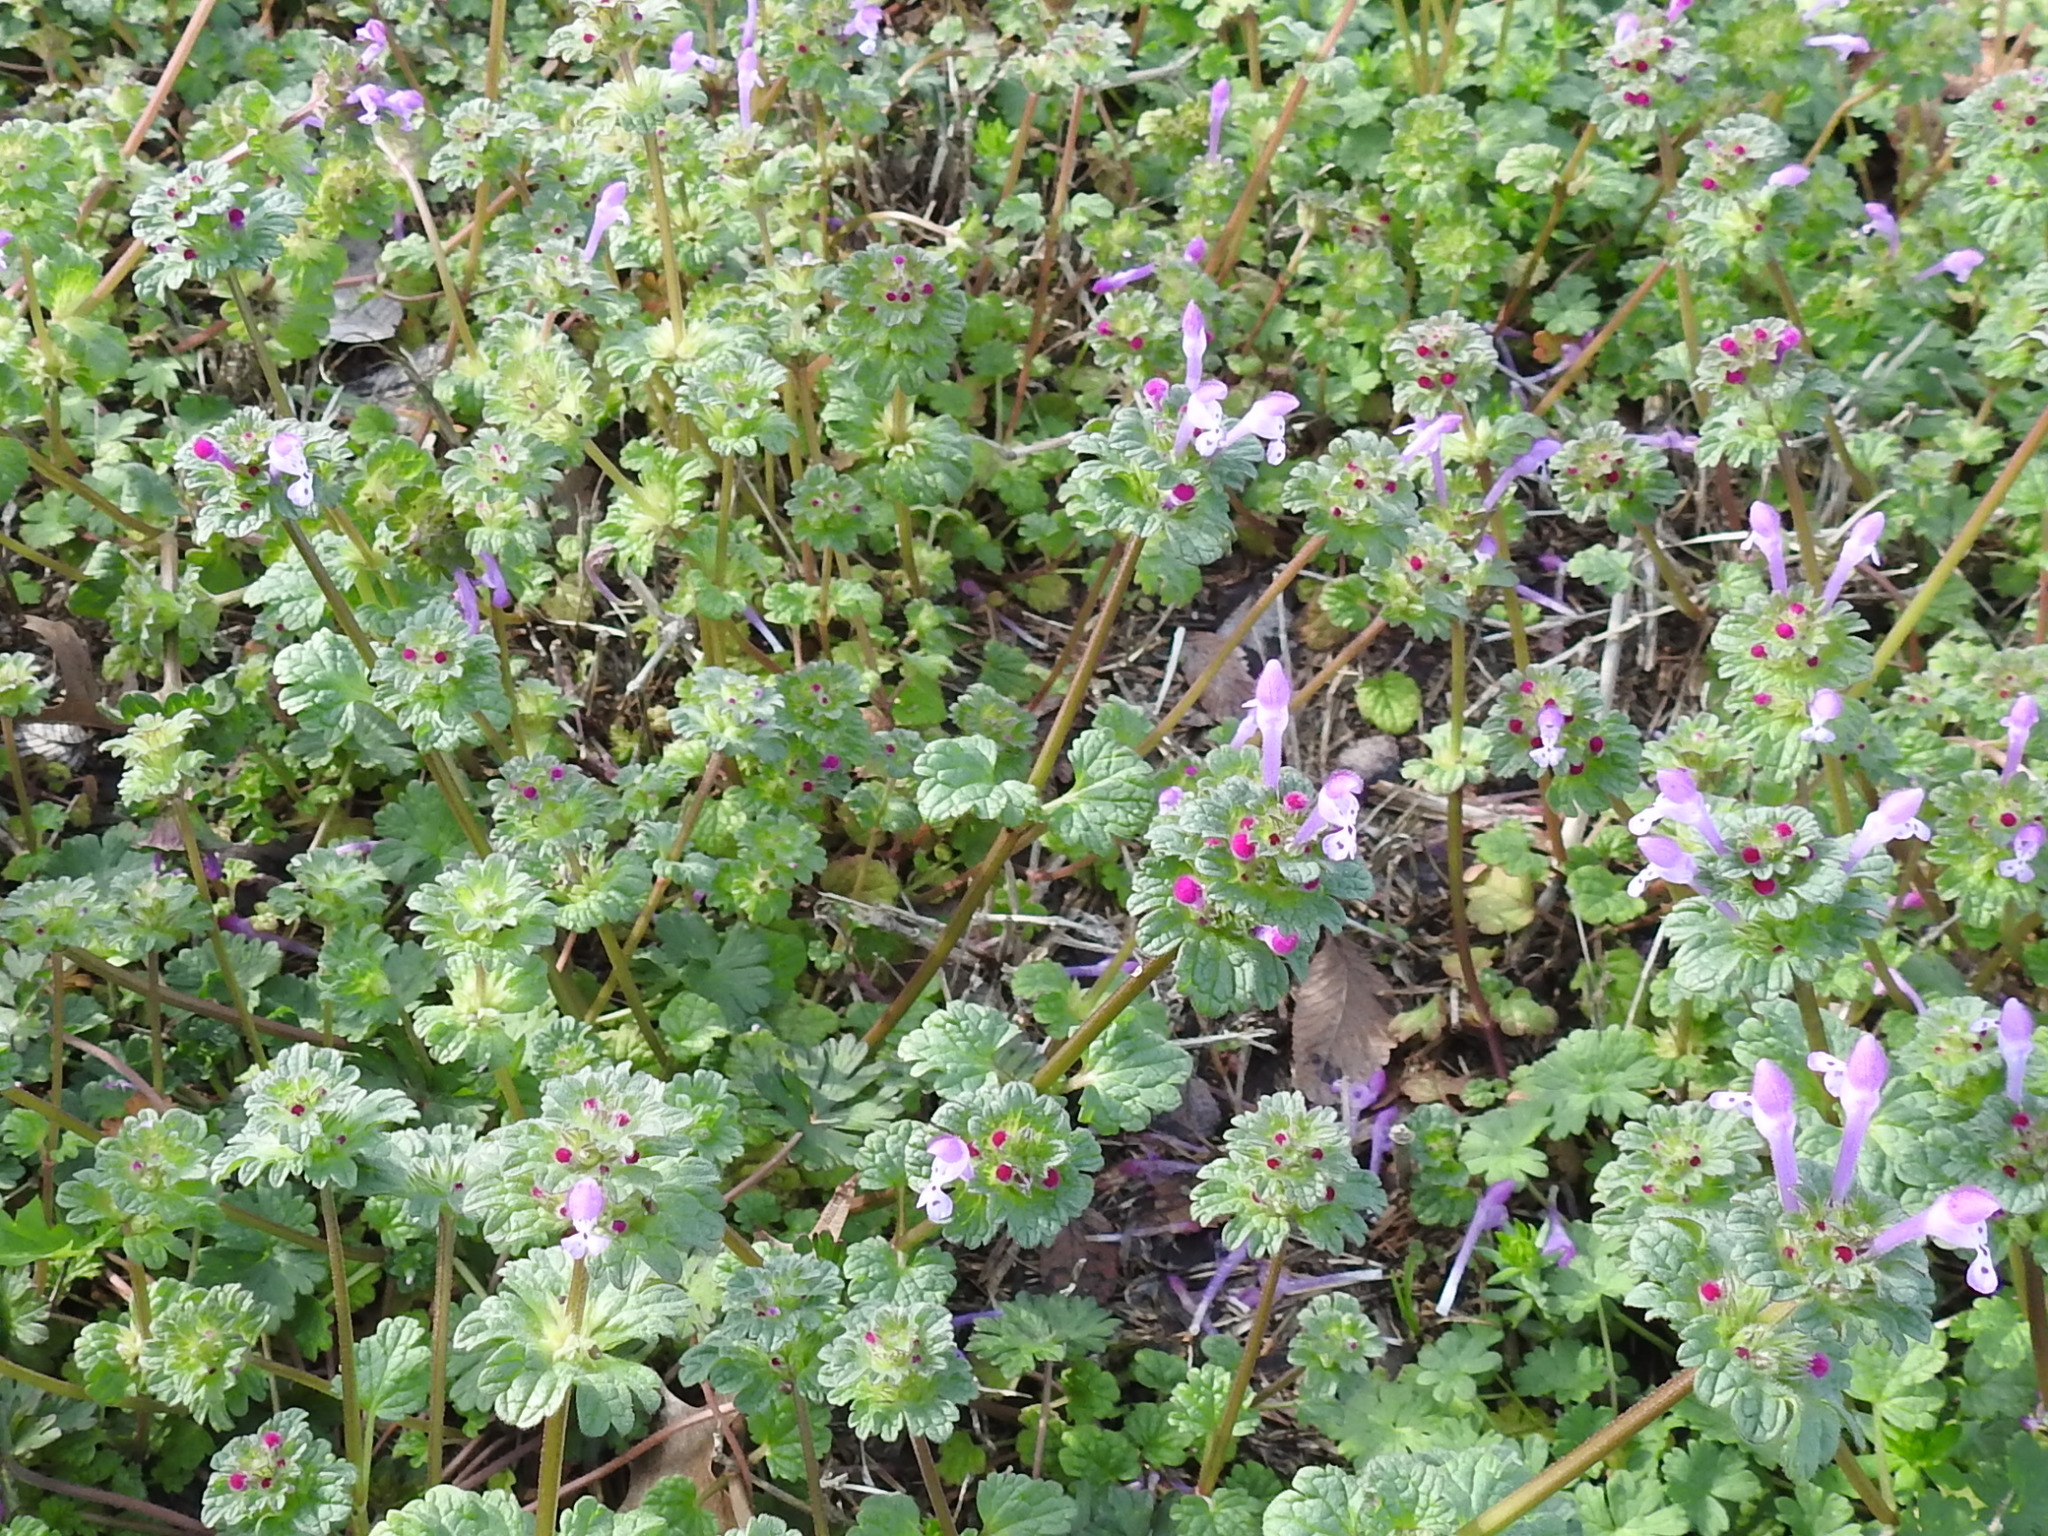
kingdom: Plantae
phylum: Tracheophyta
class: Magnoliopsida
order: Lamiales
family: Lamiaceae
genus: Lamium
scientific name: Lamium amplexicaule
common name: Henbit dead-nettle
